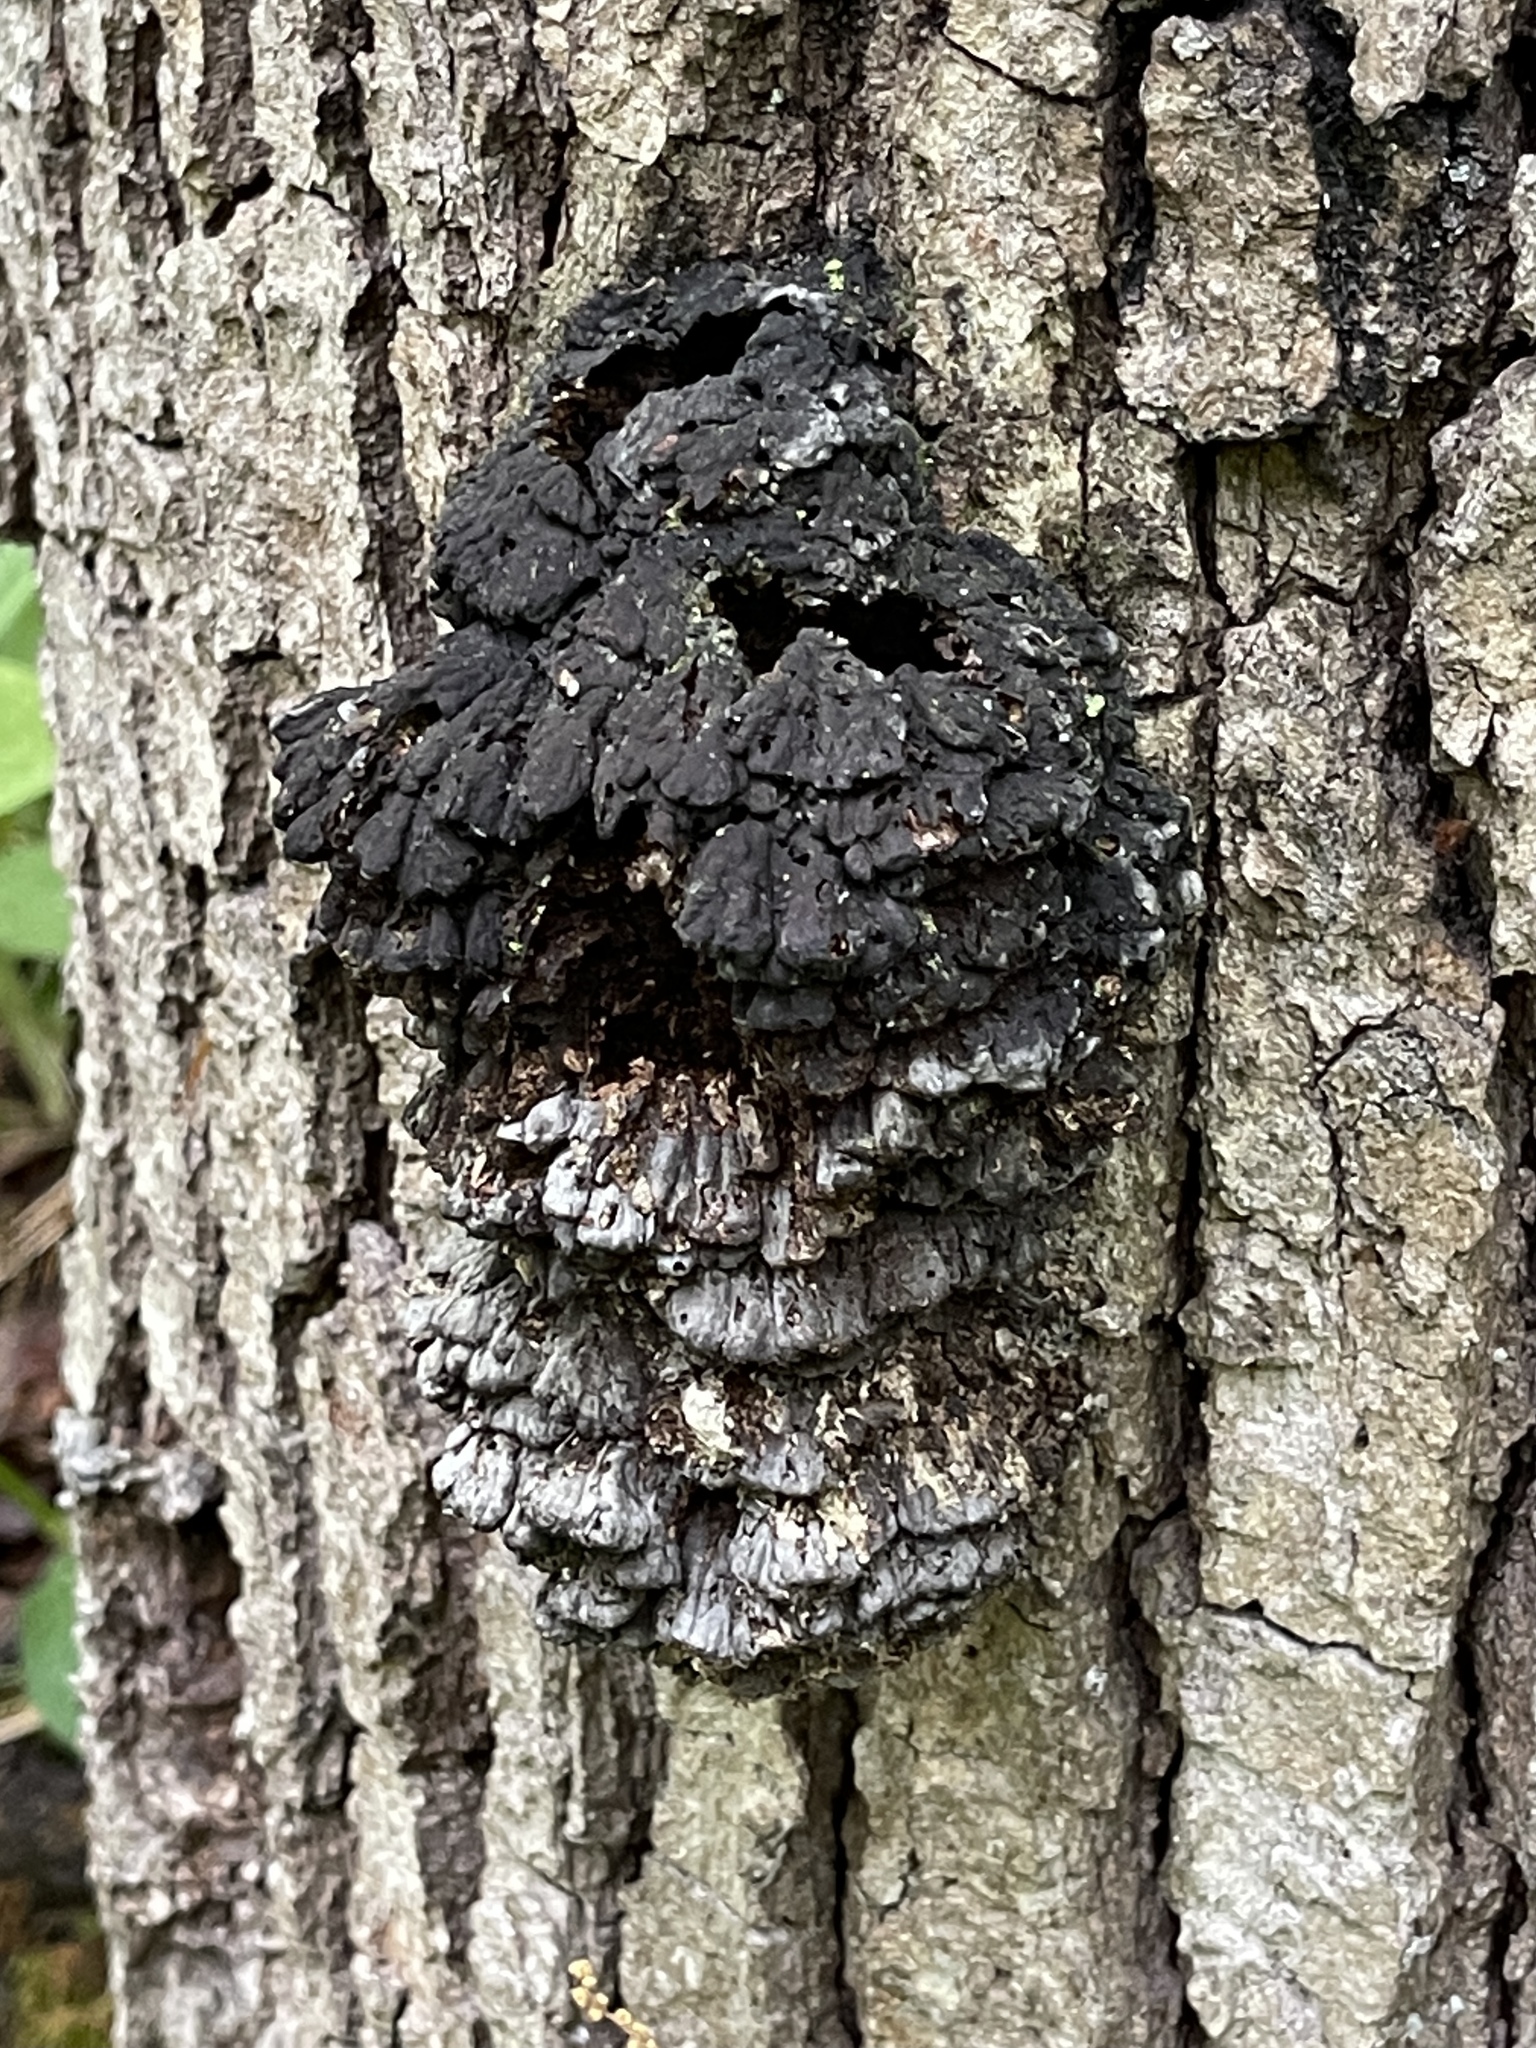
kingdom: Fungi
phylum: Basidiomycota
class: Agaricomycetes
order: Polyporales
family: Polyporaceae
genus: Globifomes
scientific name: Globifomes graveolens
